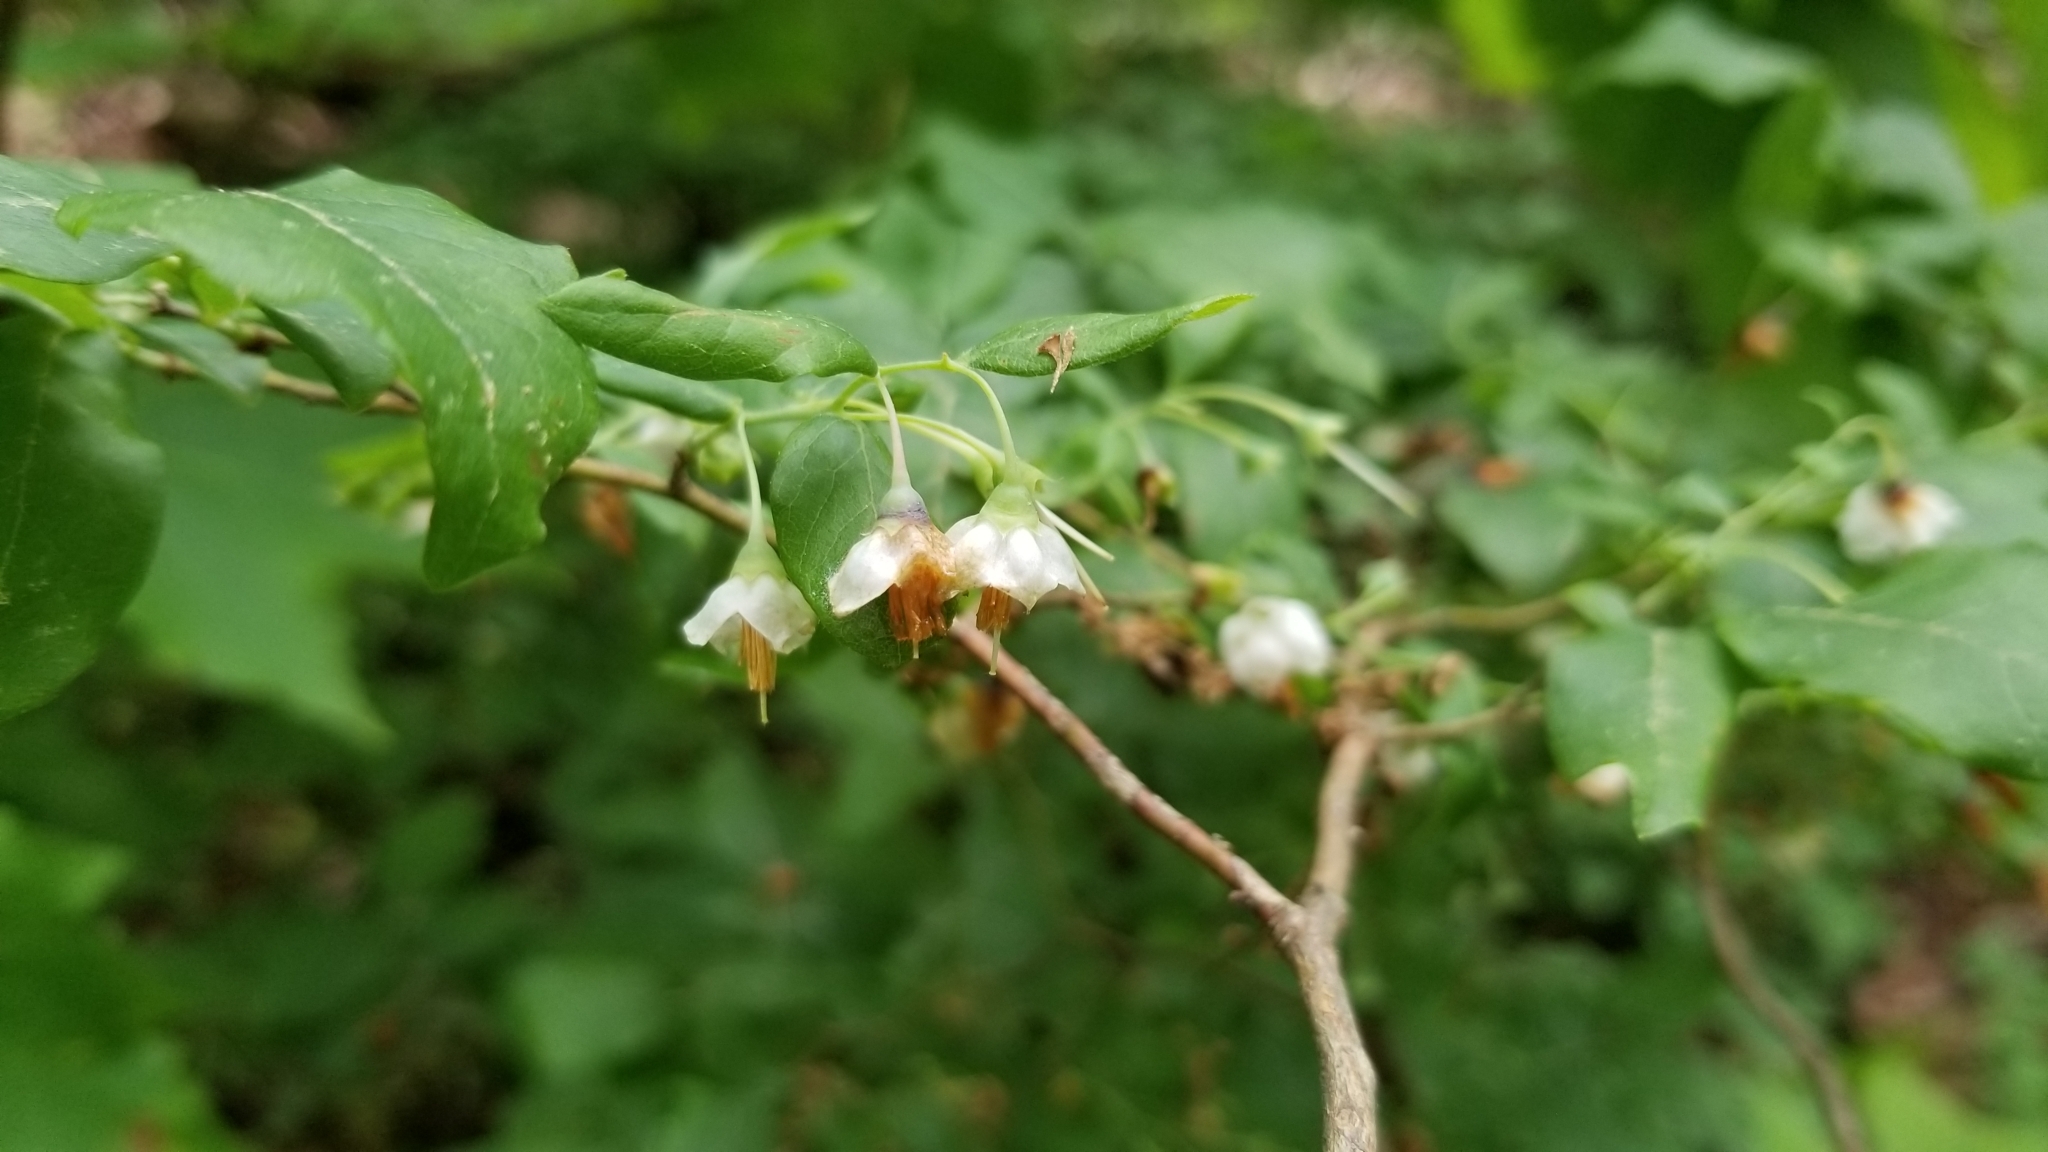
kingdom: Plantae
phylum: Tracheophyta
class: Magnoliopsida
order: Ericales
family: Ericaceae
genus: Vaccinium
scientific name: Vaccinium stamineum
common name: Deerberry
